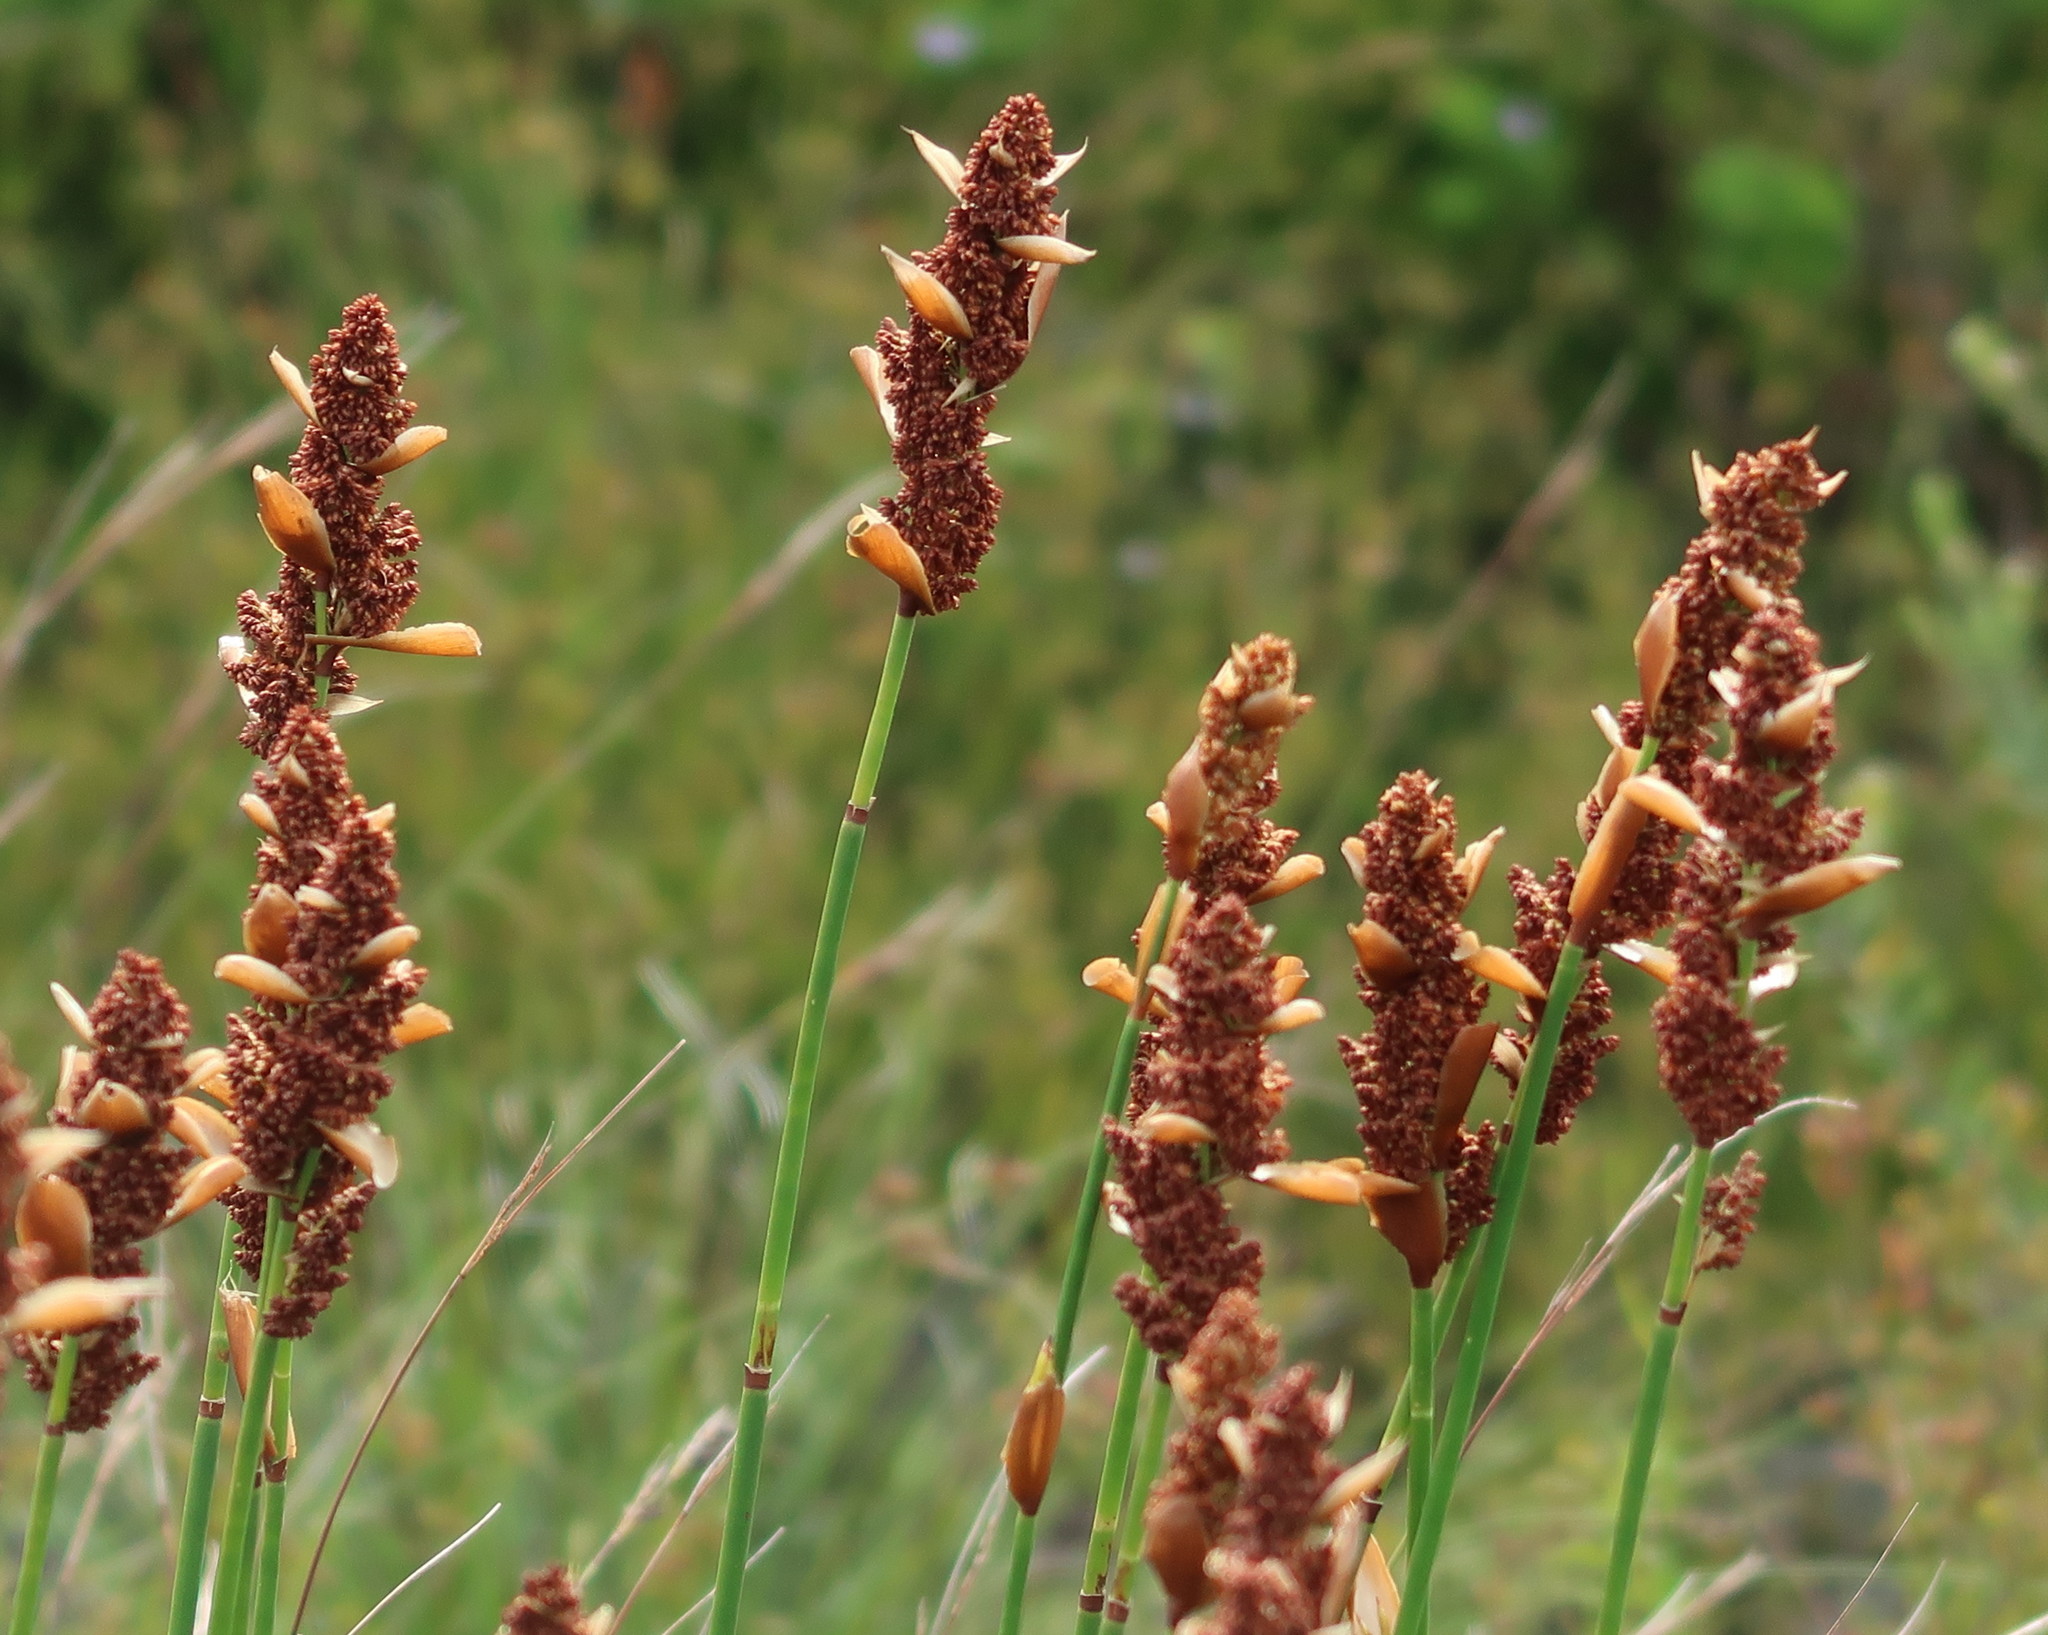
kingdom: Plantae
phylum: Tracheophyta
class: Liliopsida
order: Poales
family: Restionaceae
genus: Elegia
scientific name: Elegia equisetacea
